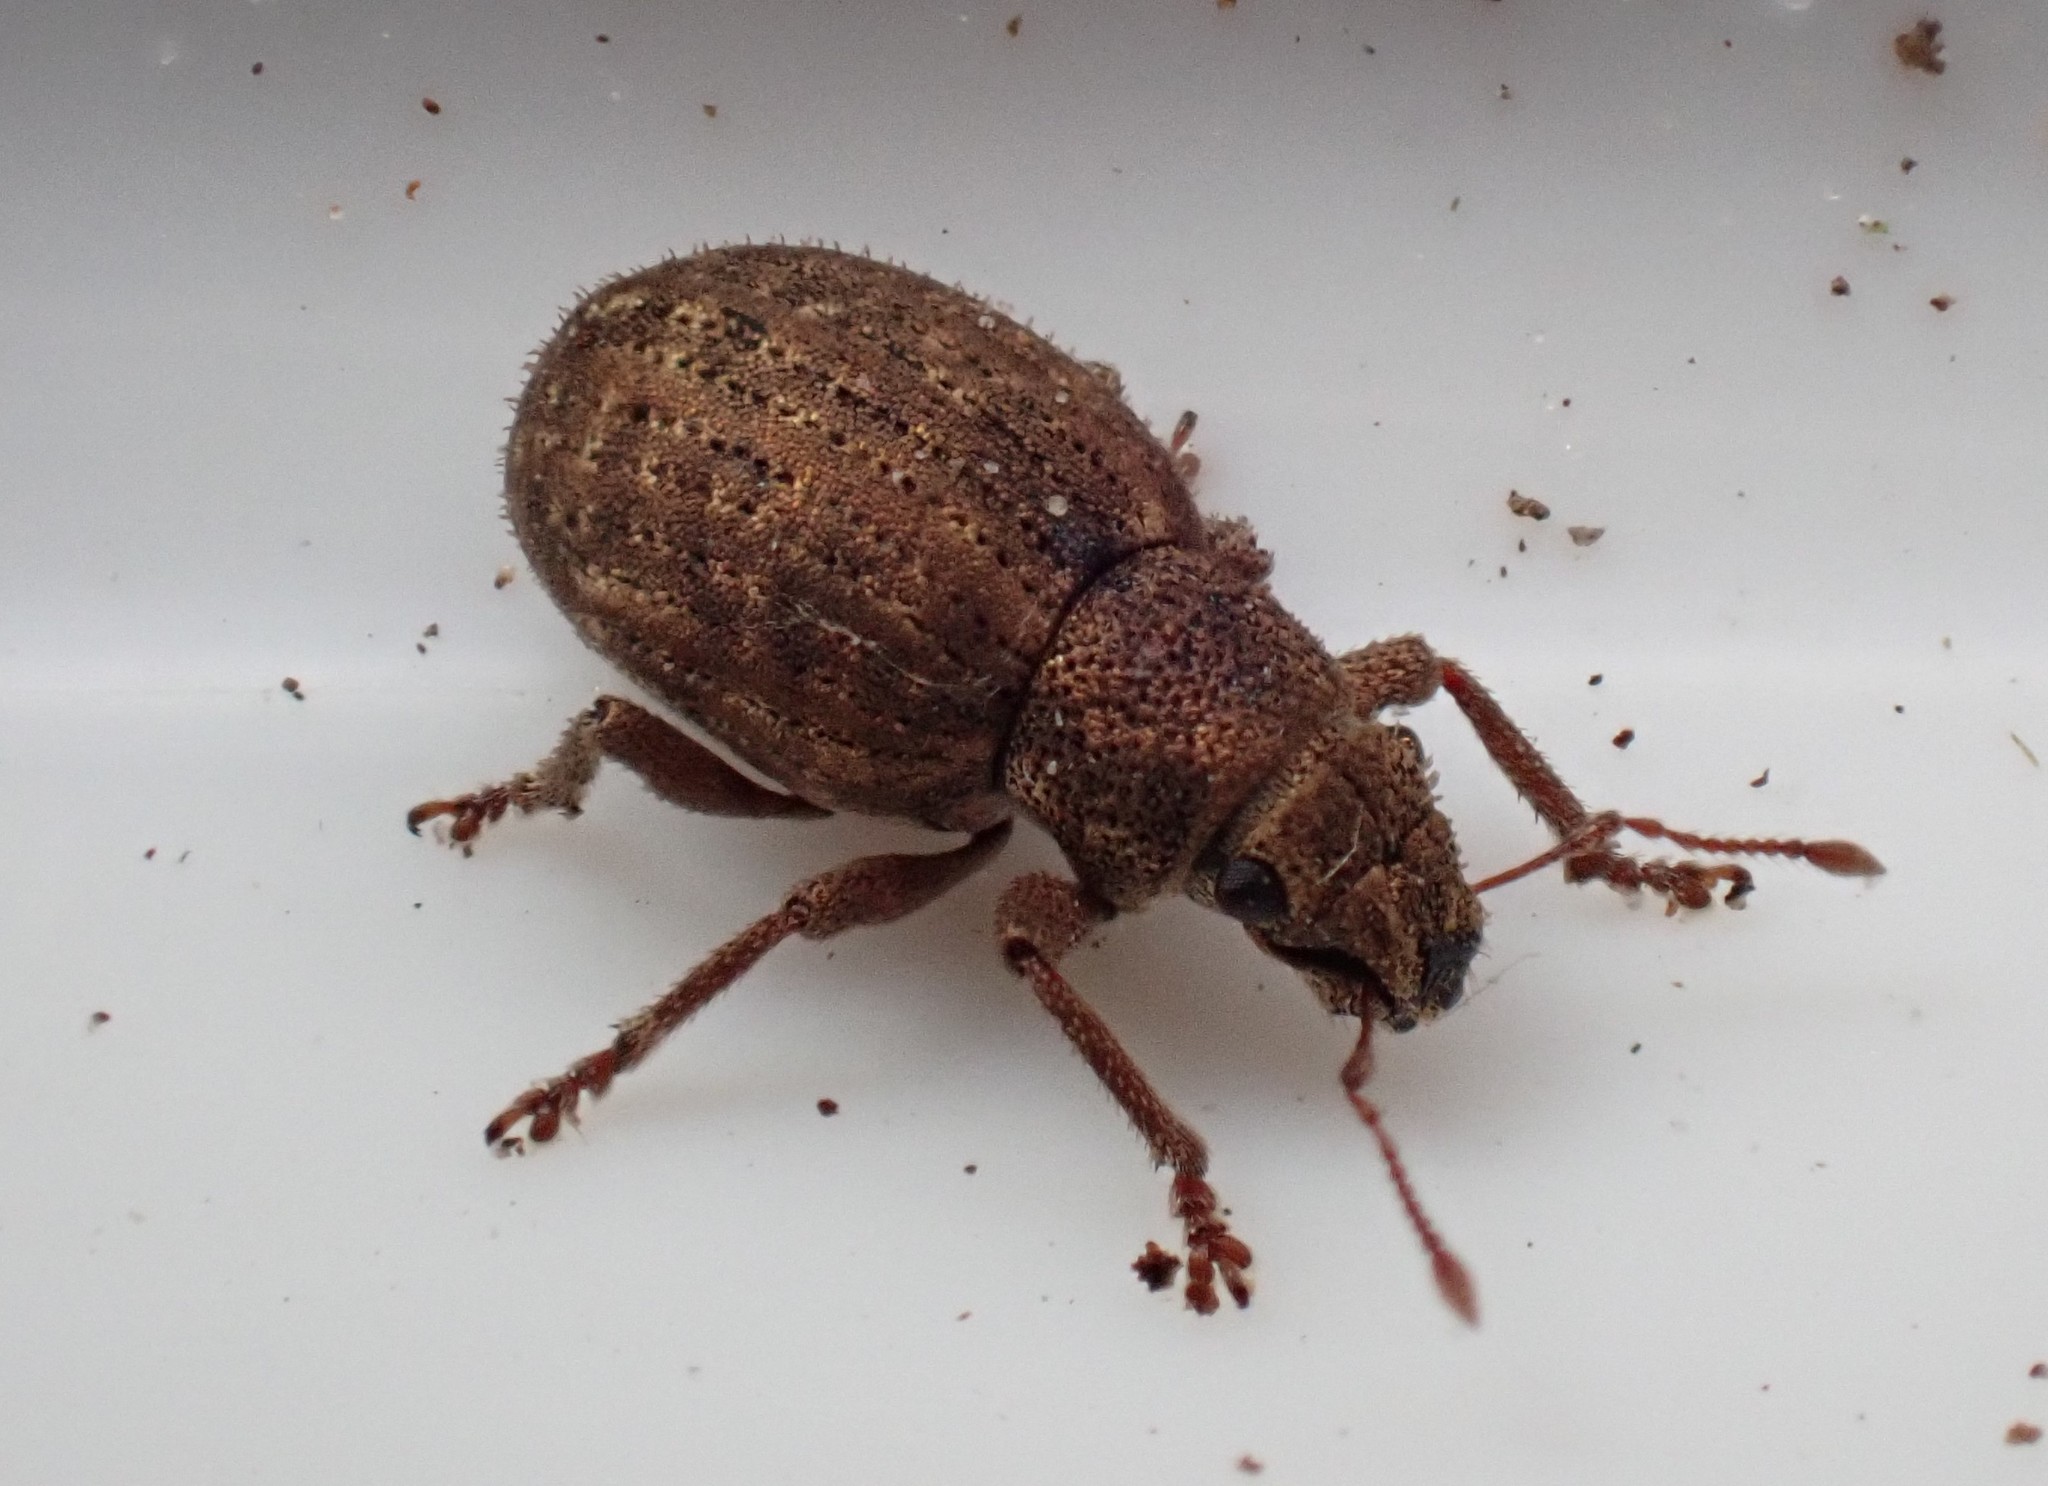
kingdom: Animalia
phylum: Arthropoda
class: Insecta
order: Coleoptera
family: Curculionidae
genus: Strophosoma
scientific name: Strophosoma capitatum
